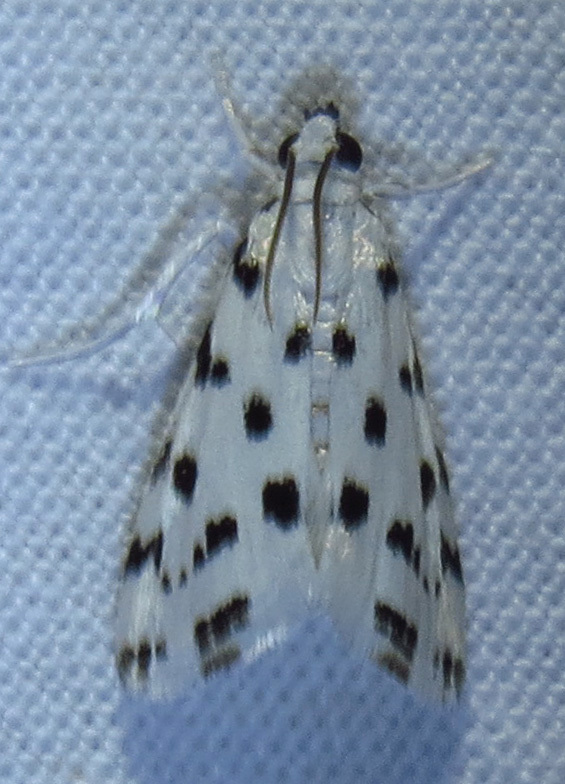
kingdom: Animalia
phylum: Arthropoda
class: Insecta
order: Lepidoptera
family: Crambidae
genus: Eustixia
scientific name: Eustixia pupula
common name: American cabbage pearl
